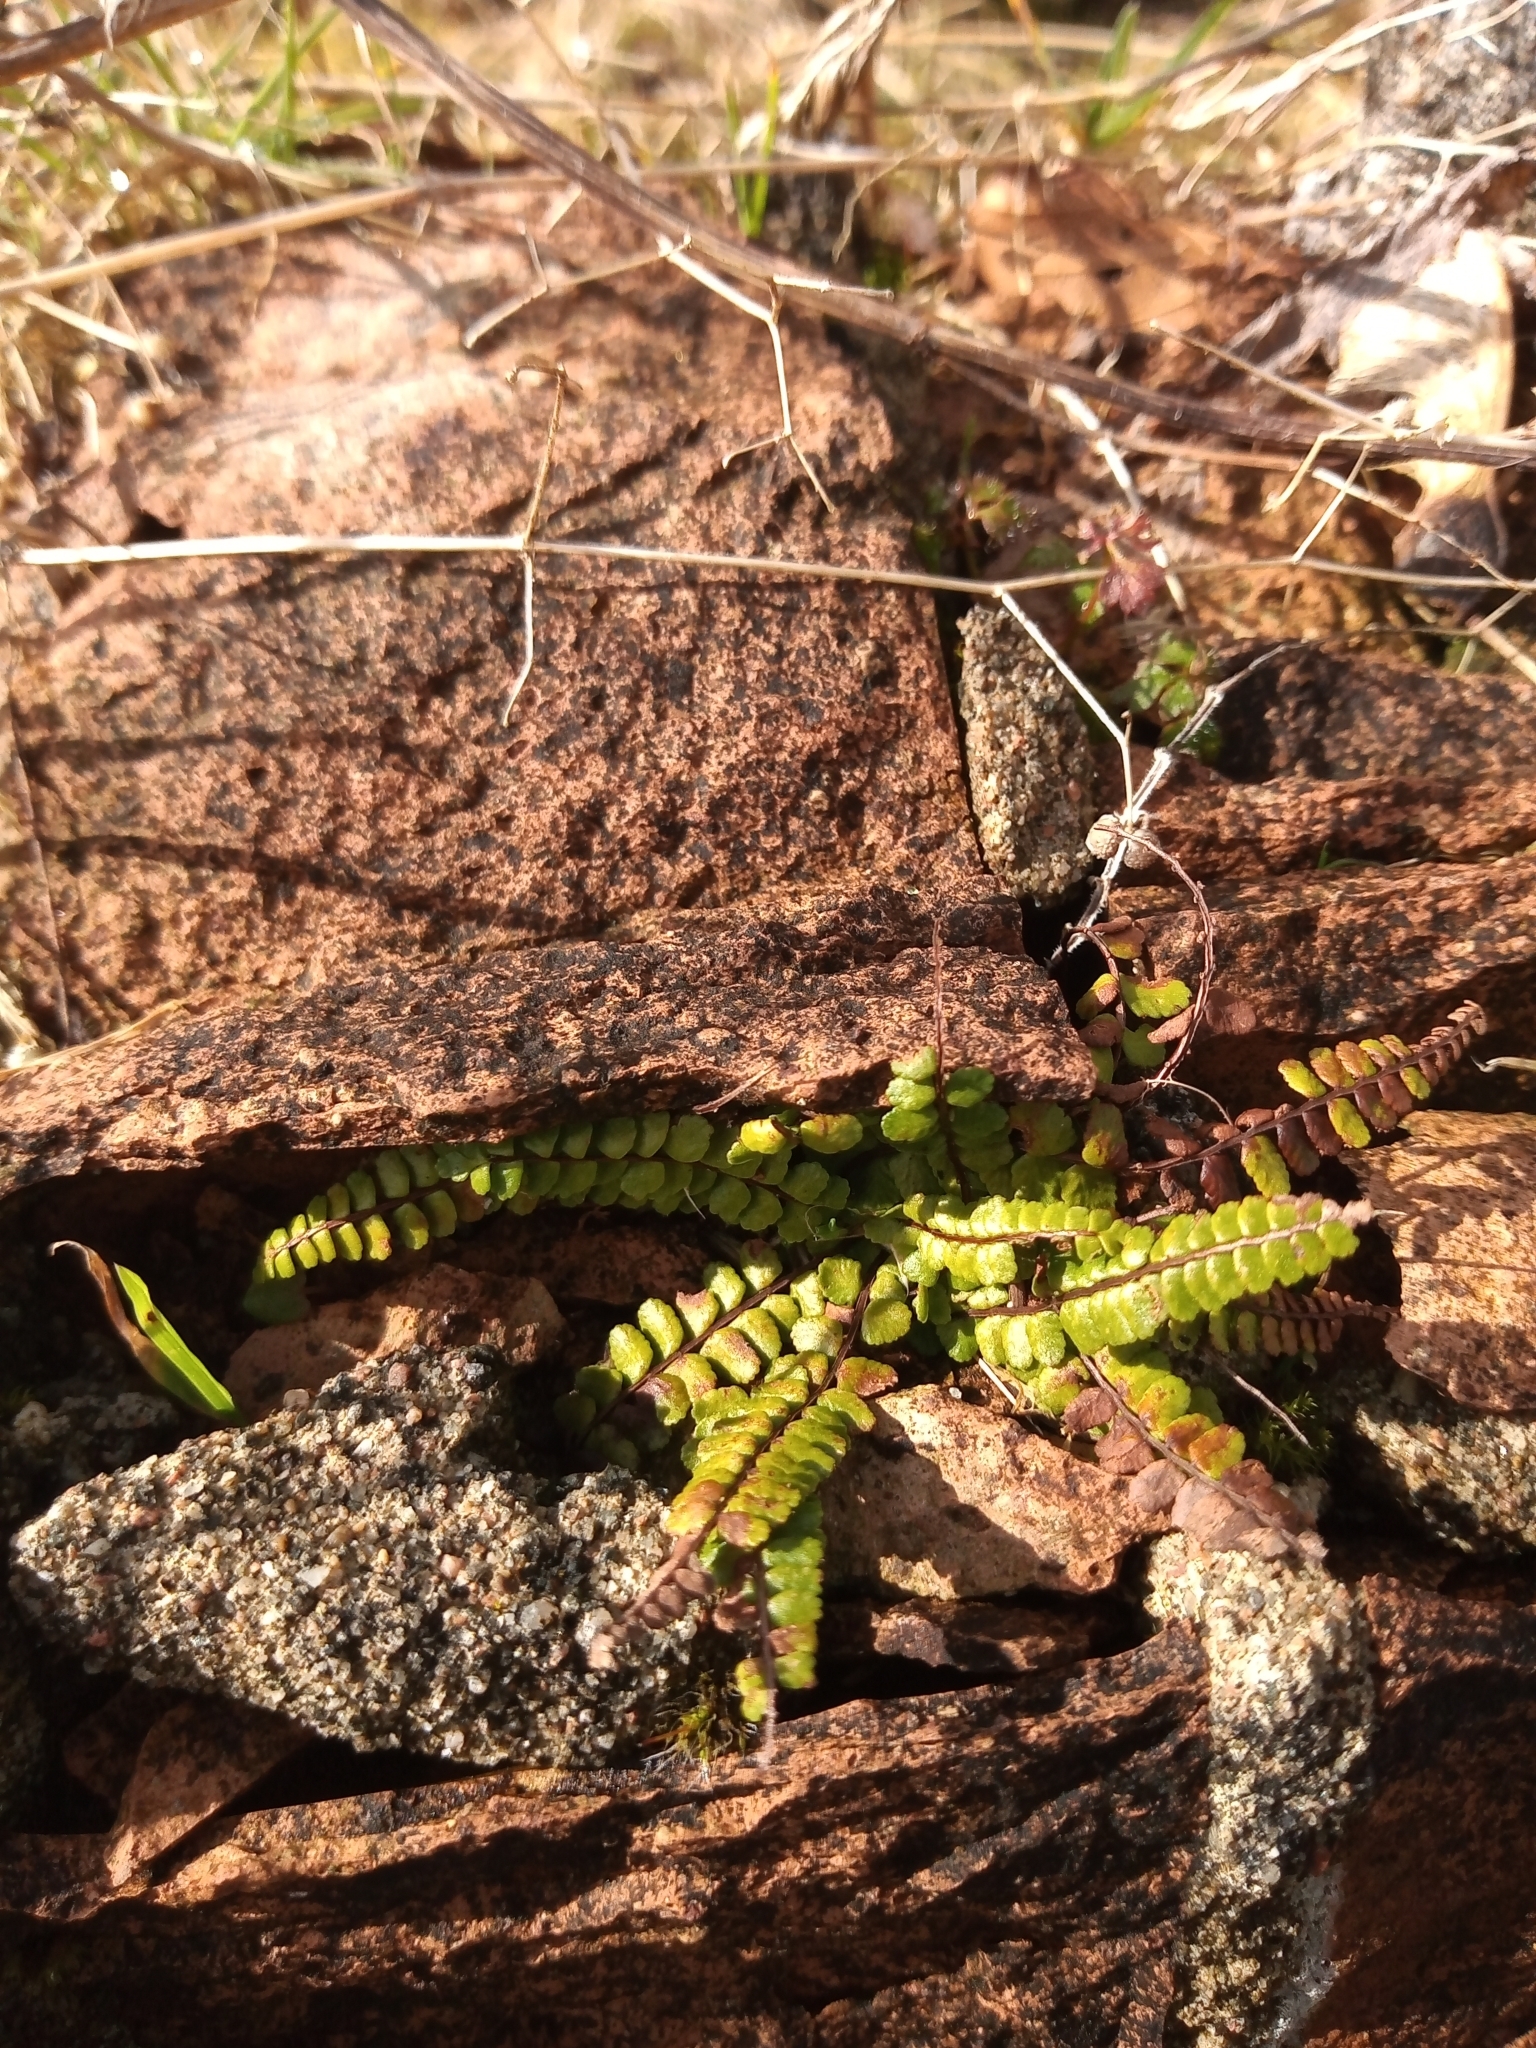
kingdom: Plantae
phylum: Tracheophyta
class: Polypodiopsida
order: Polypodiales
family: Aspleniaceae
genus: Asplenium
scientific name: Asplenium trichomanes
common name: Maidenhair spleenwort
